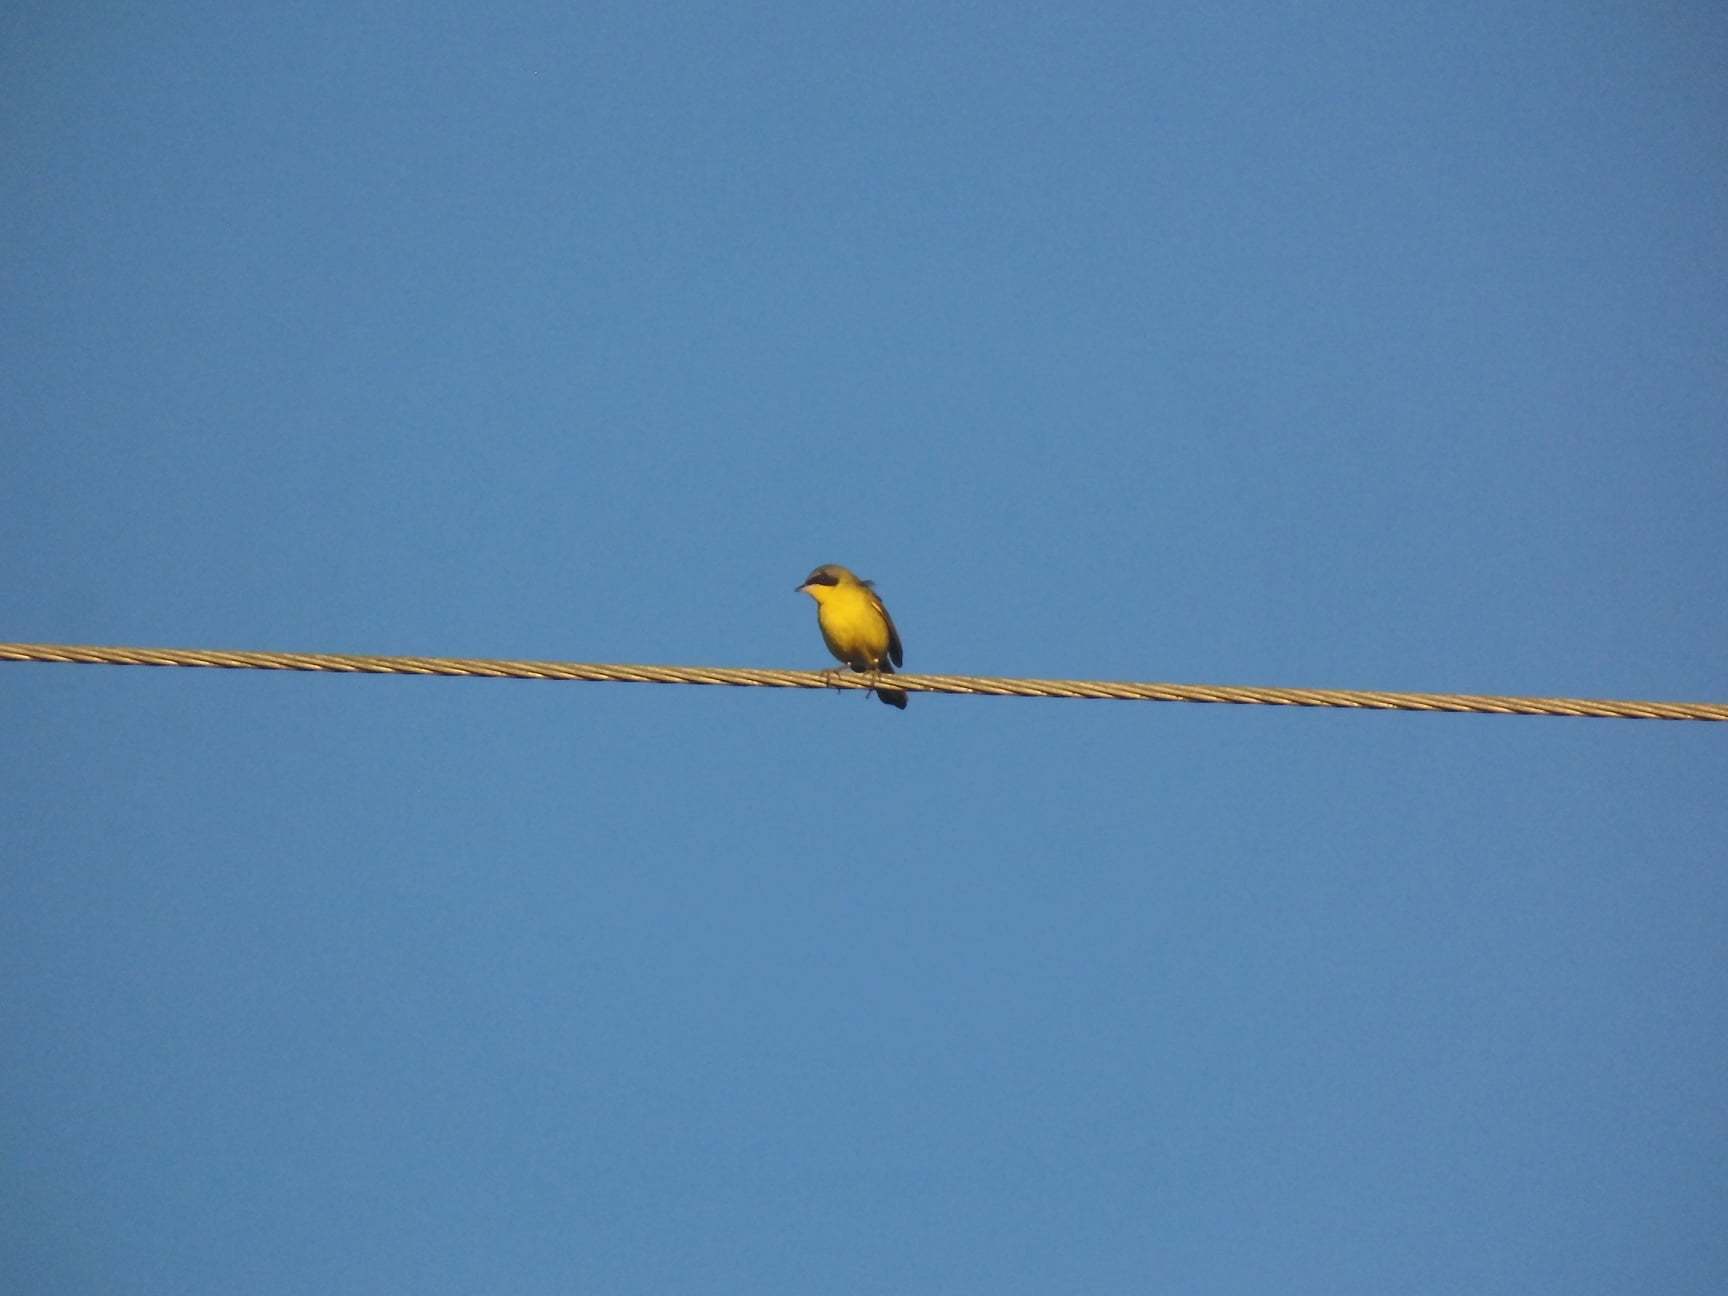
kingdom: Animalia
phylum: Chordata
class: Aves
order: Passeriformes
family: Parulidae
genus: Geothlypis
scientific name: Geothlypis velata
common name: Southern yellowthroat
